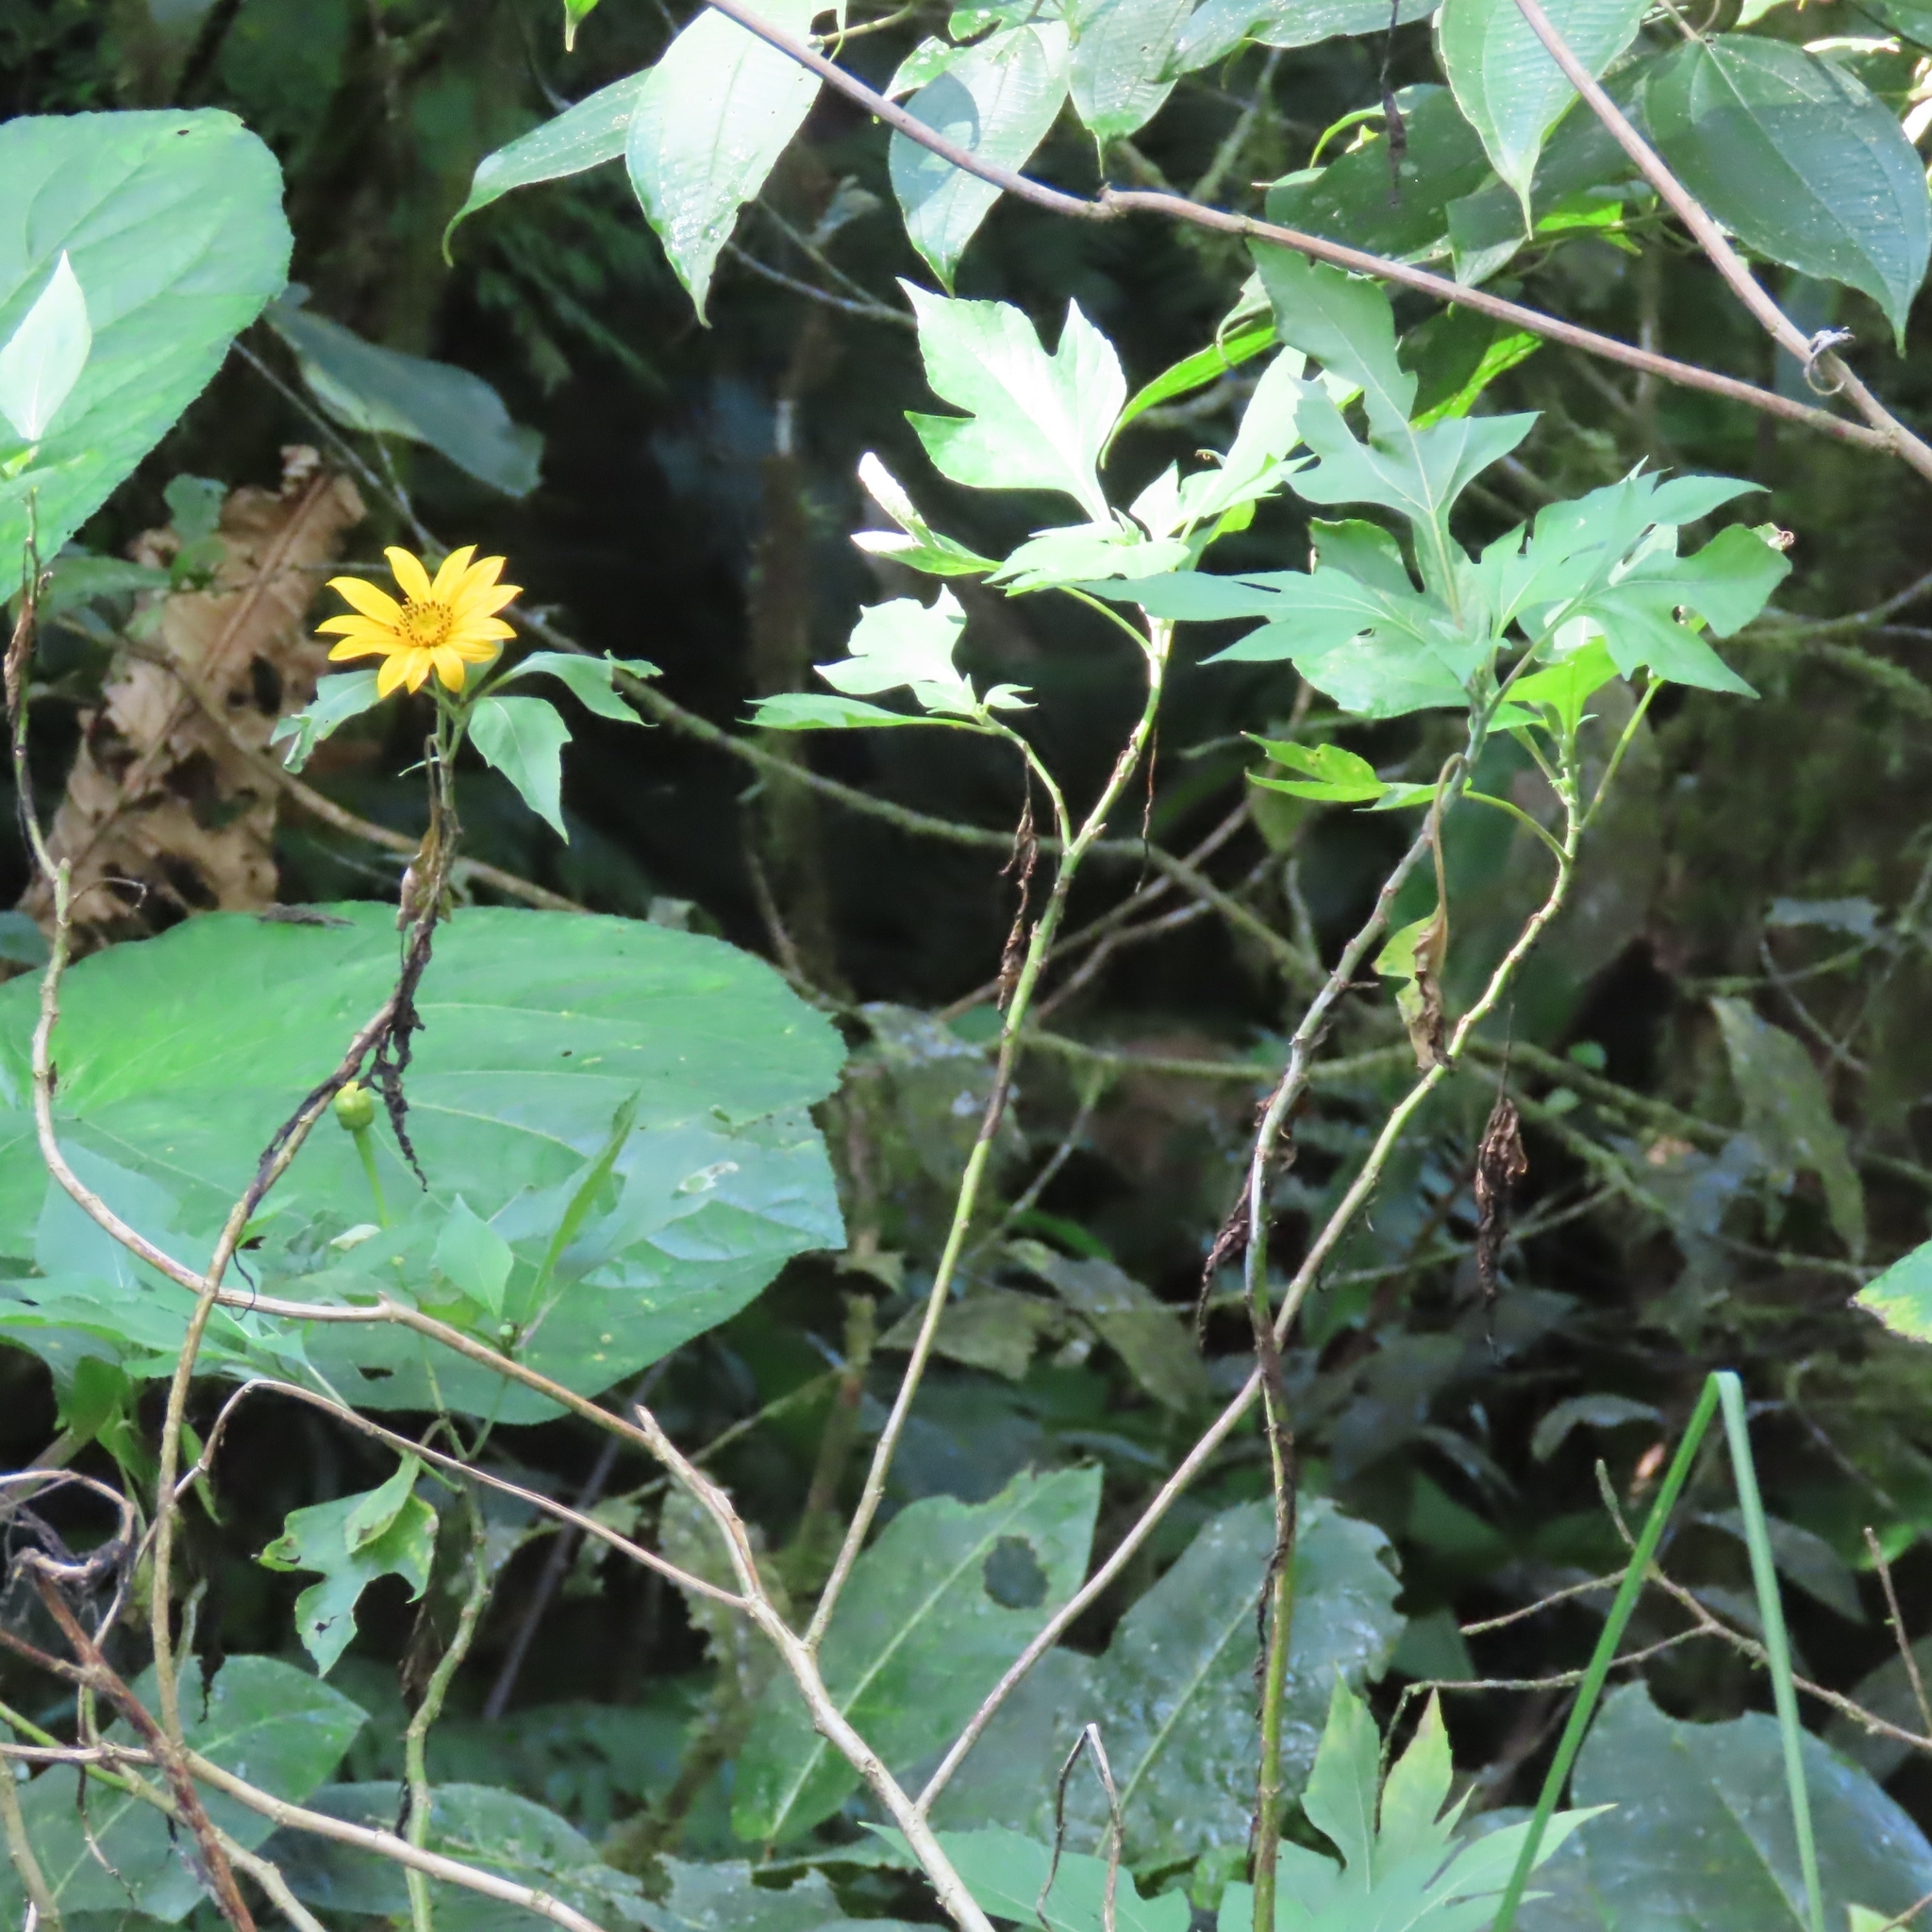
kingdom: Plantae
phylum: Tracheophyta
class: Magnoliopsida
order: Asterales
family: Asteraceae
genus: Tithonia
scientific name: Tithonia diversifolia
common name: Tree marigold
